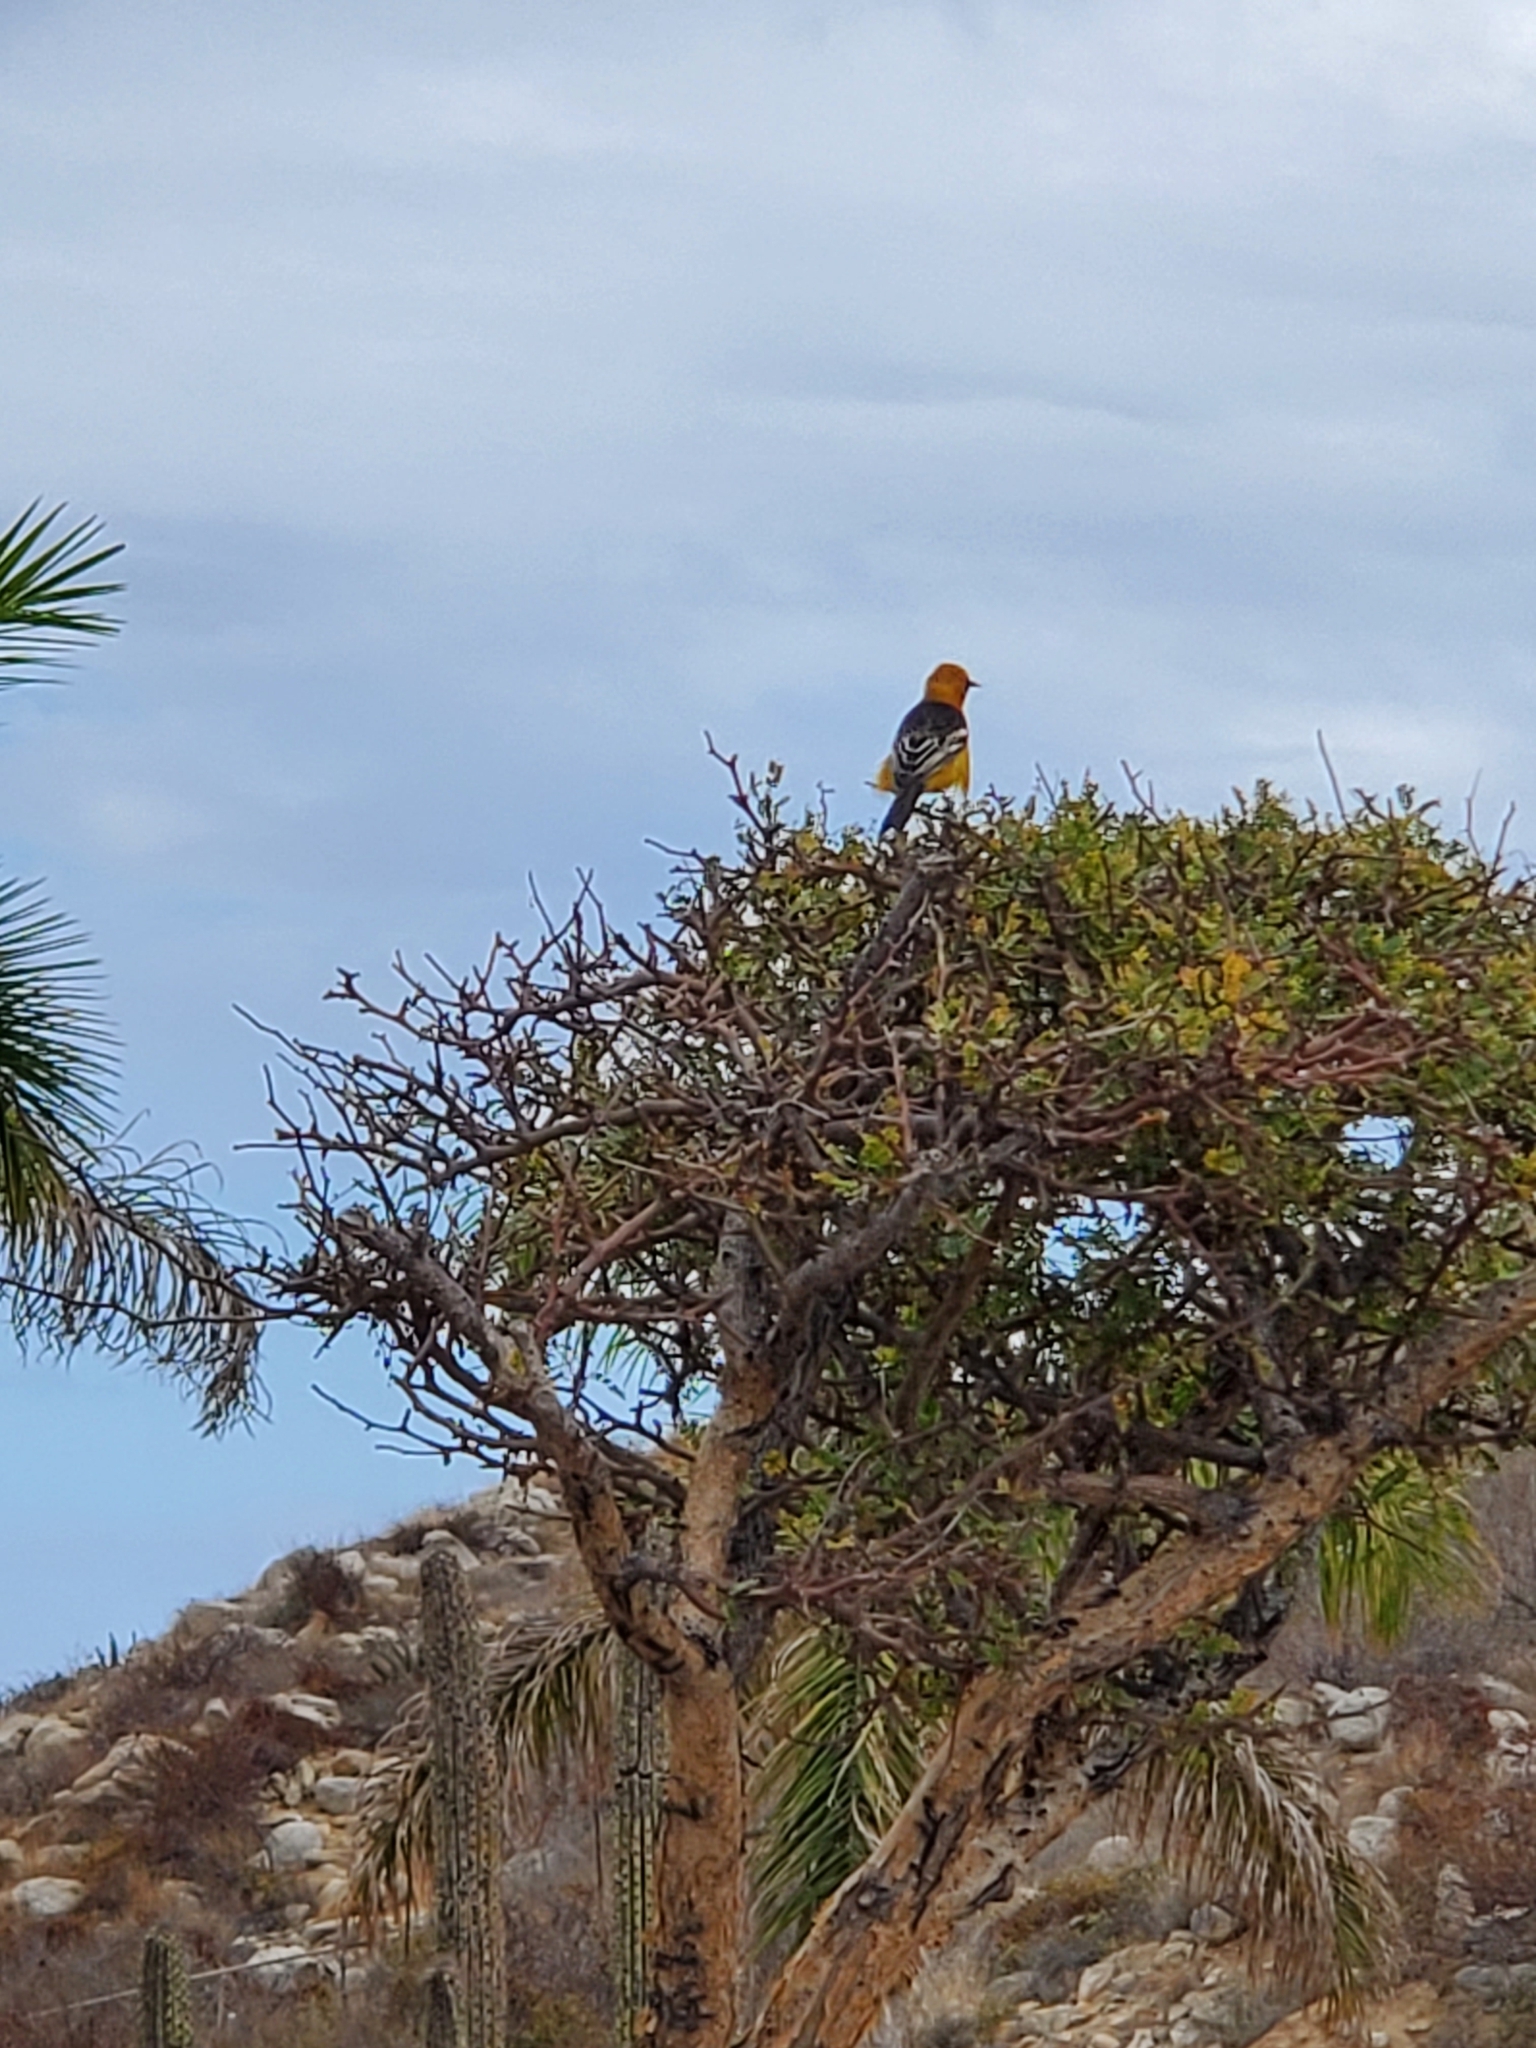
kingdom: Animalia
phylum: Chordata
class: Aves
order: Passeriformes
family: Icteridae
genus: Icterus
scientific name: Icterus cucullatus
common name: Hooded oriole
